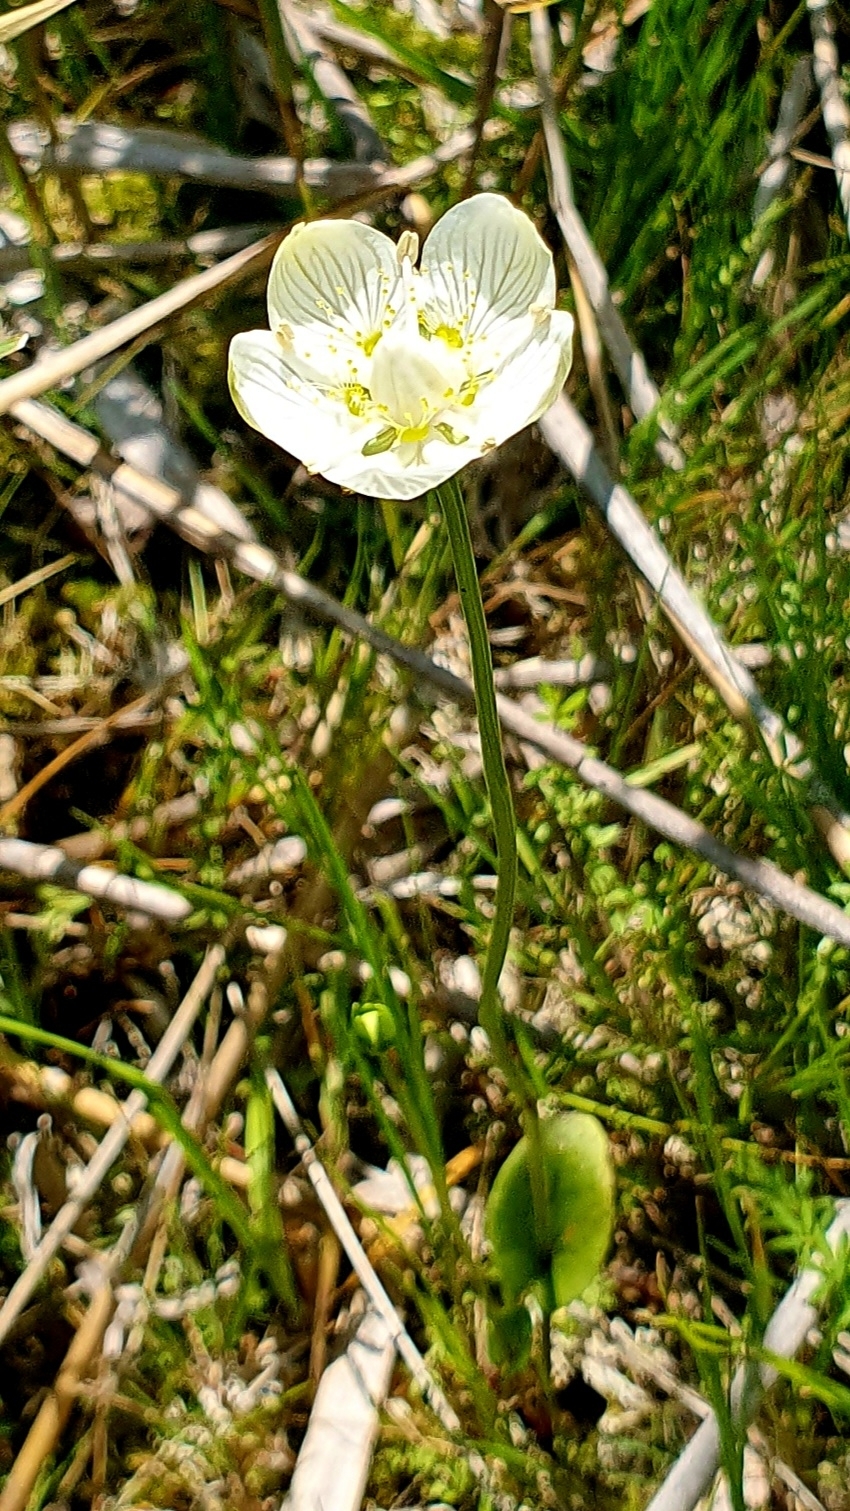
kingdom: Plantae
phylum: Tracheophyta
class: Magnoliopsida
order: Celastrales
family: Parnassiaceae
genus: Parnassia
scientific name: Parnassia palustris
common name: Grass-of-parnassus
